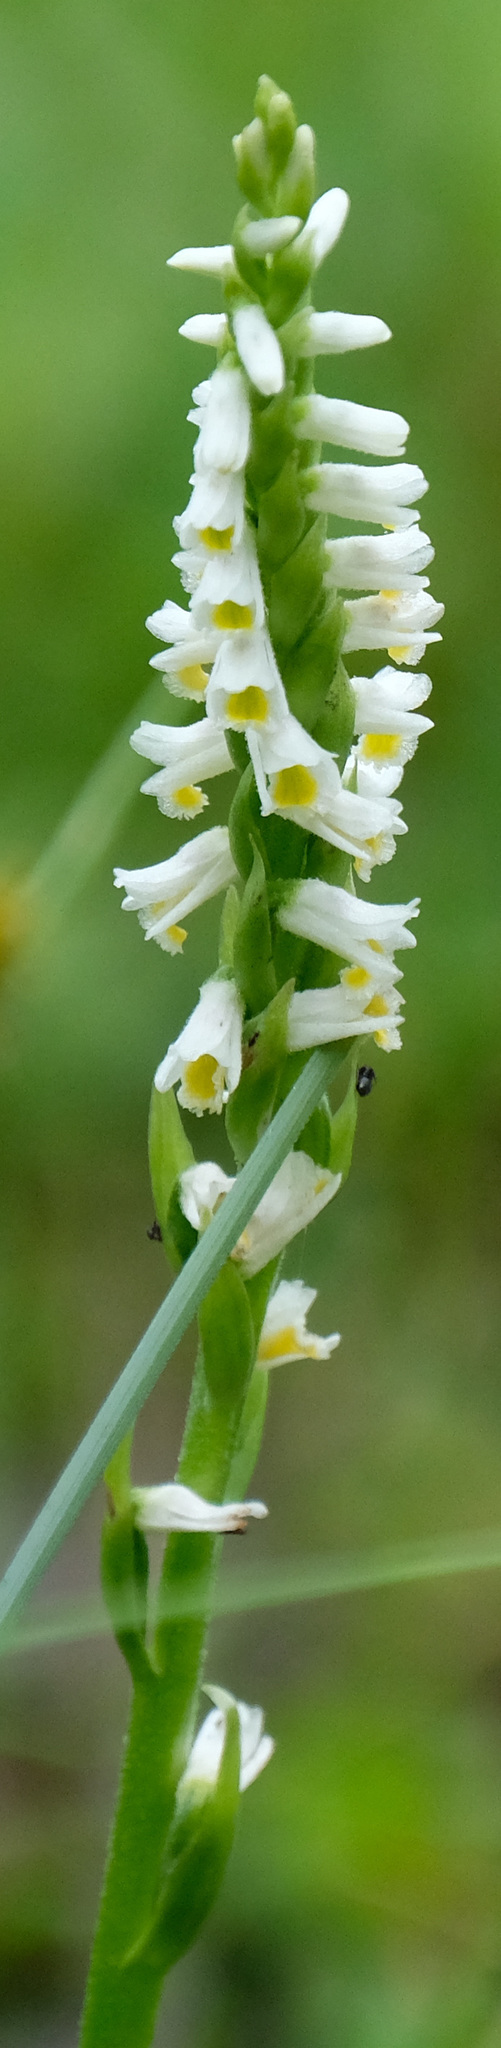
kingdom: Plantae
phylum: Tracheophyta
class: Liliopsida
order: Asparagales
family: Orchidaceae
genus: Spiranthes
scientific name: Spiranthes lucida
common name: Broad-leaved ladies'-tresses
